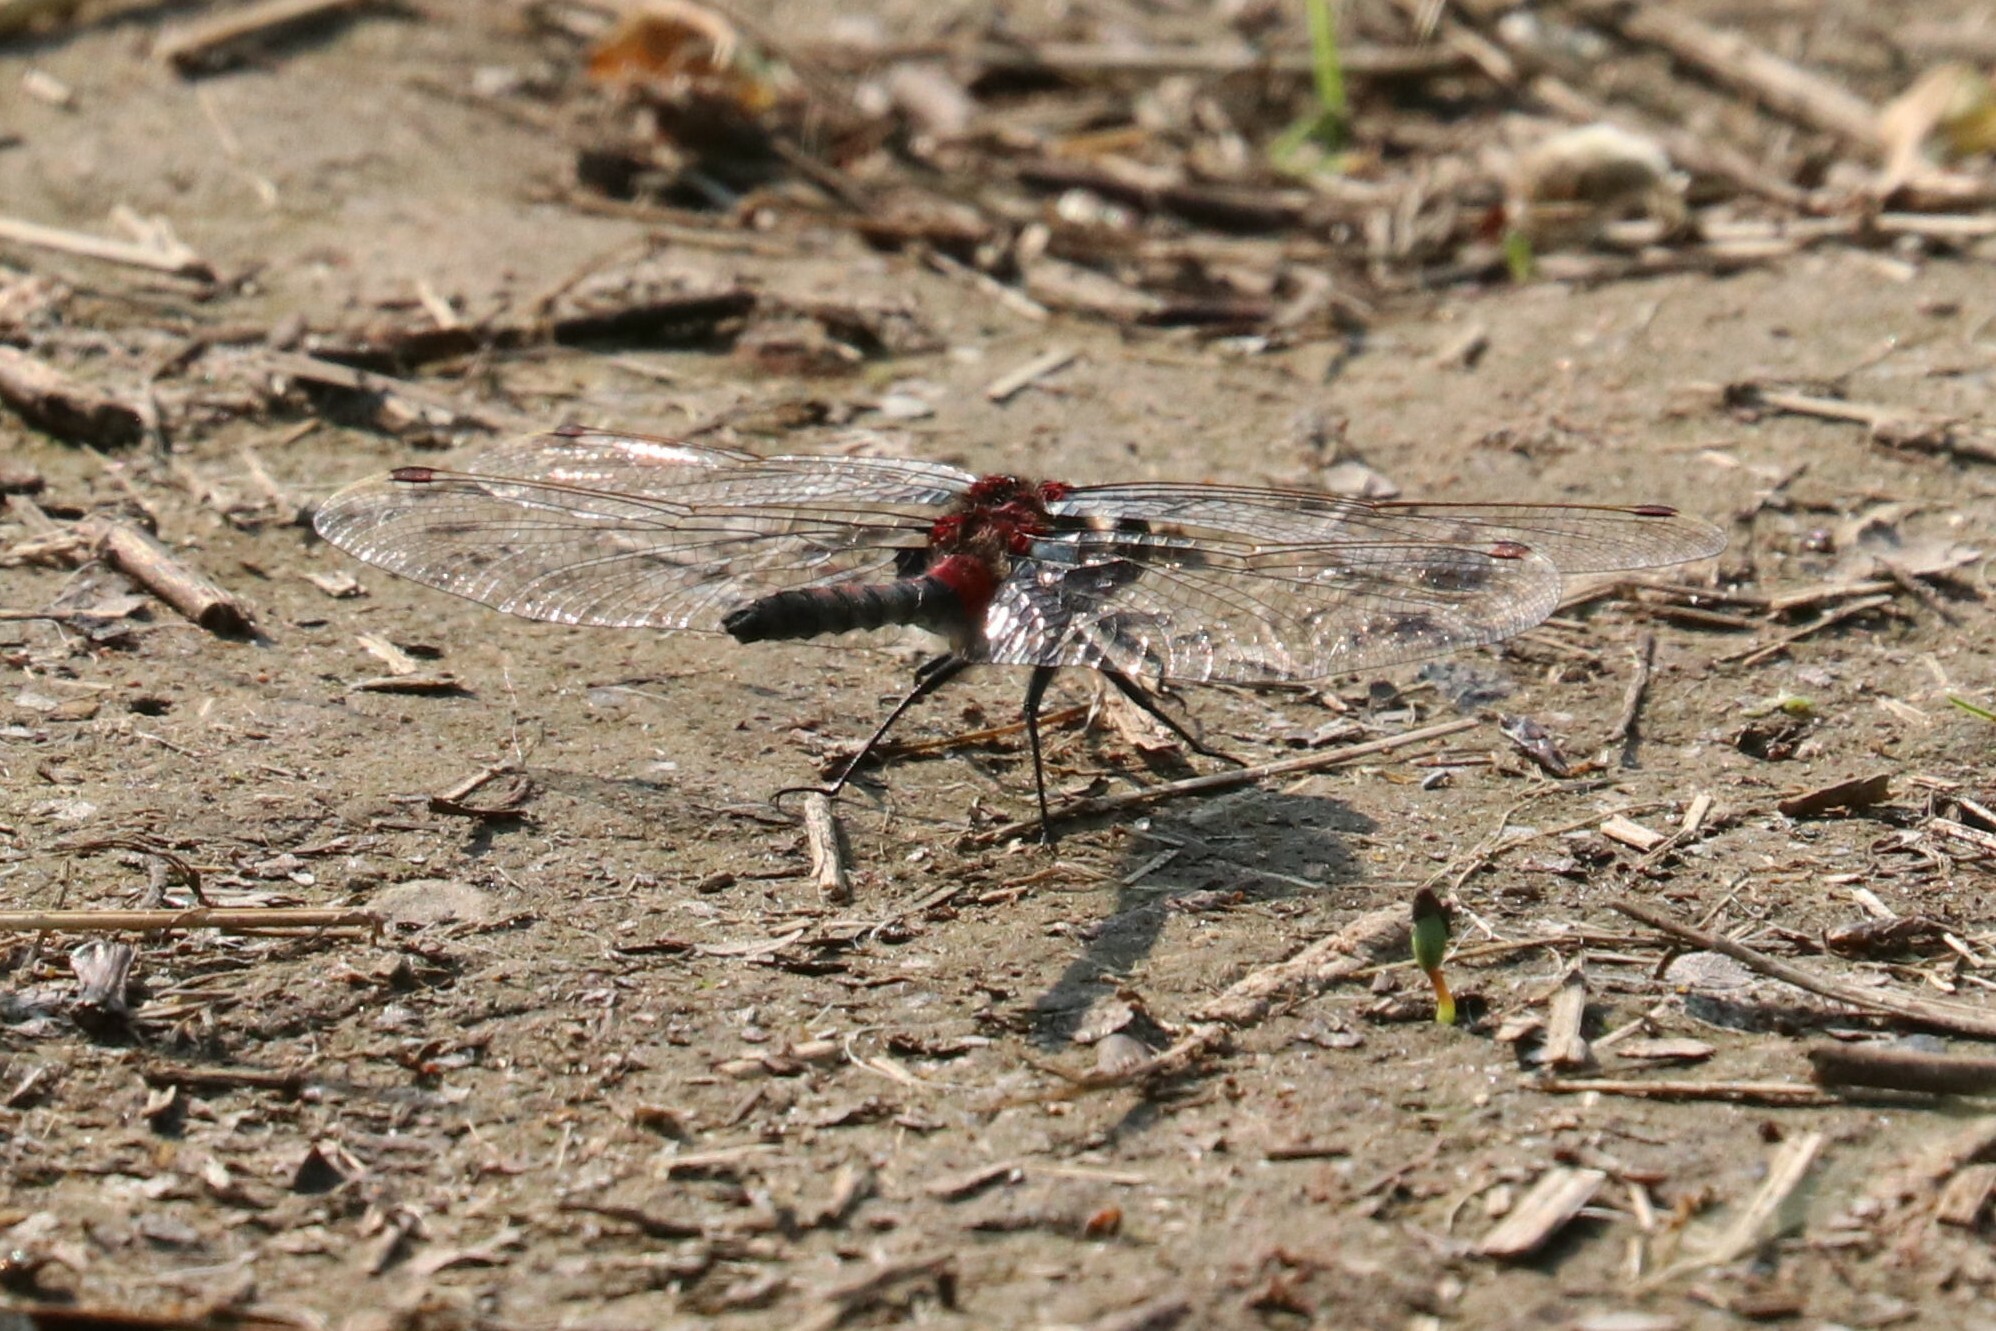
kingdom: Animalia
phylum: Arthropoda
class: Insecta
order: Odonata
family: Libellulidae
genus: Leucorrhinia
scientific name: Leucorrhinia rubicunda
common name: Ruby whiteface
